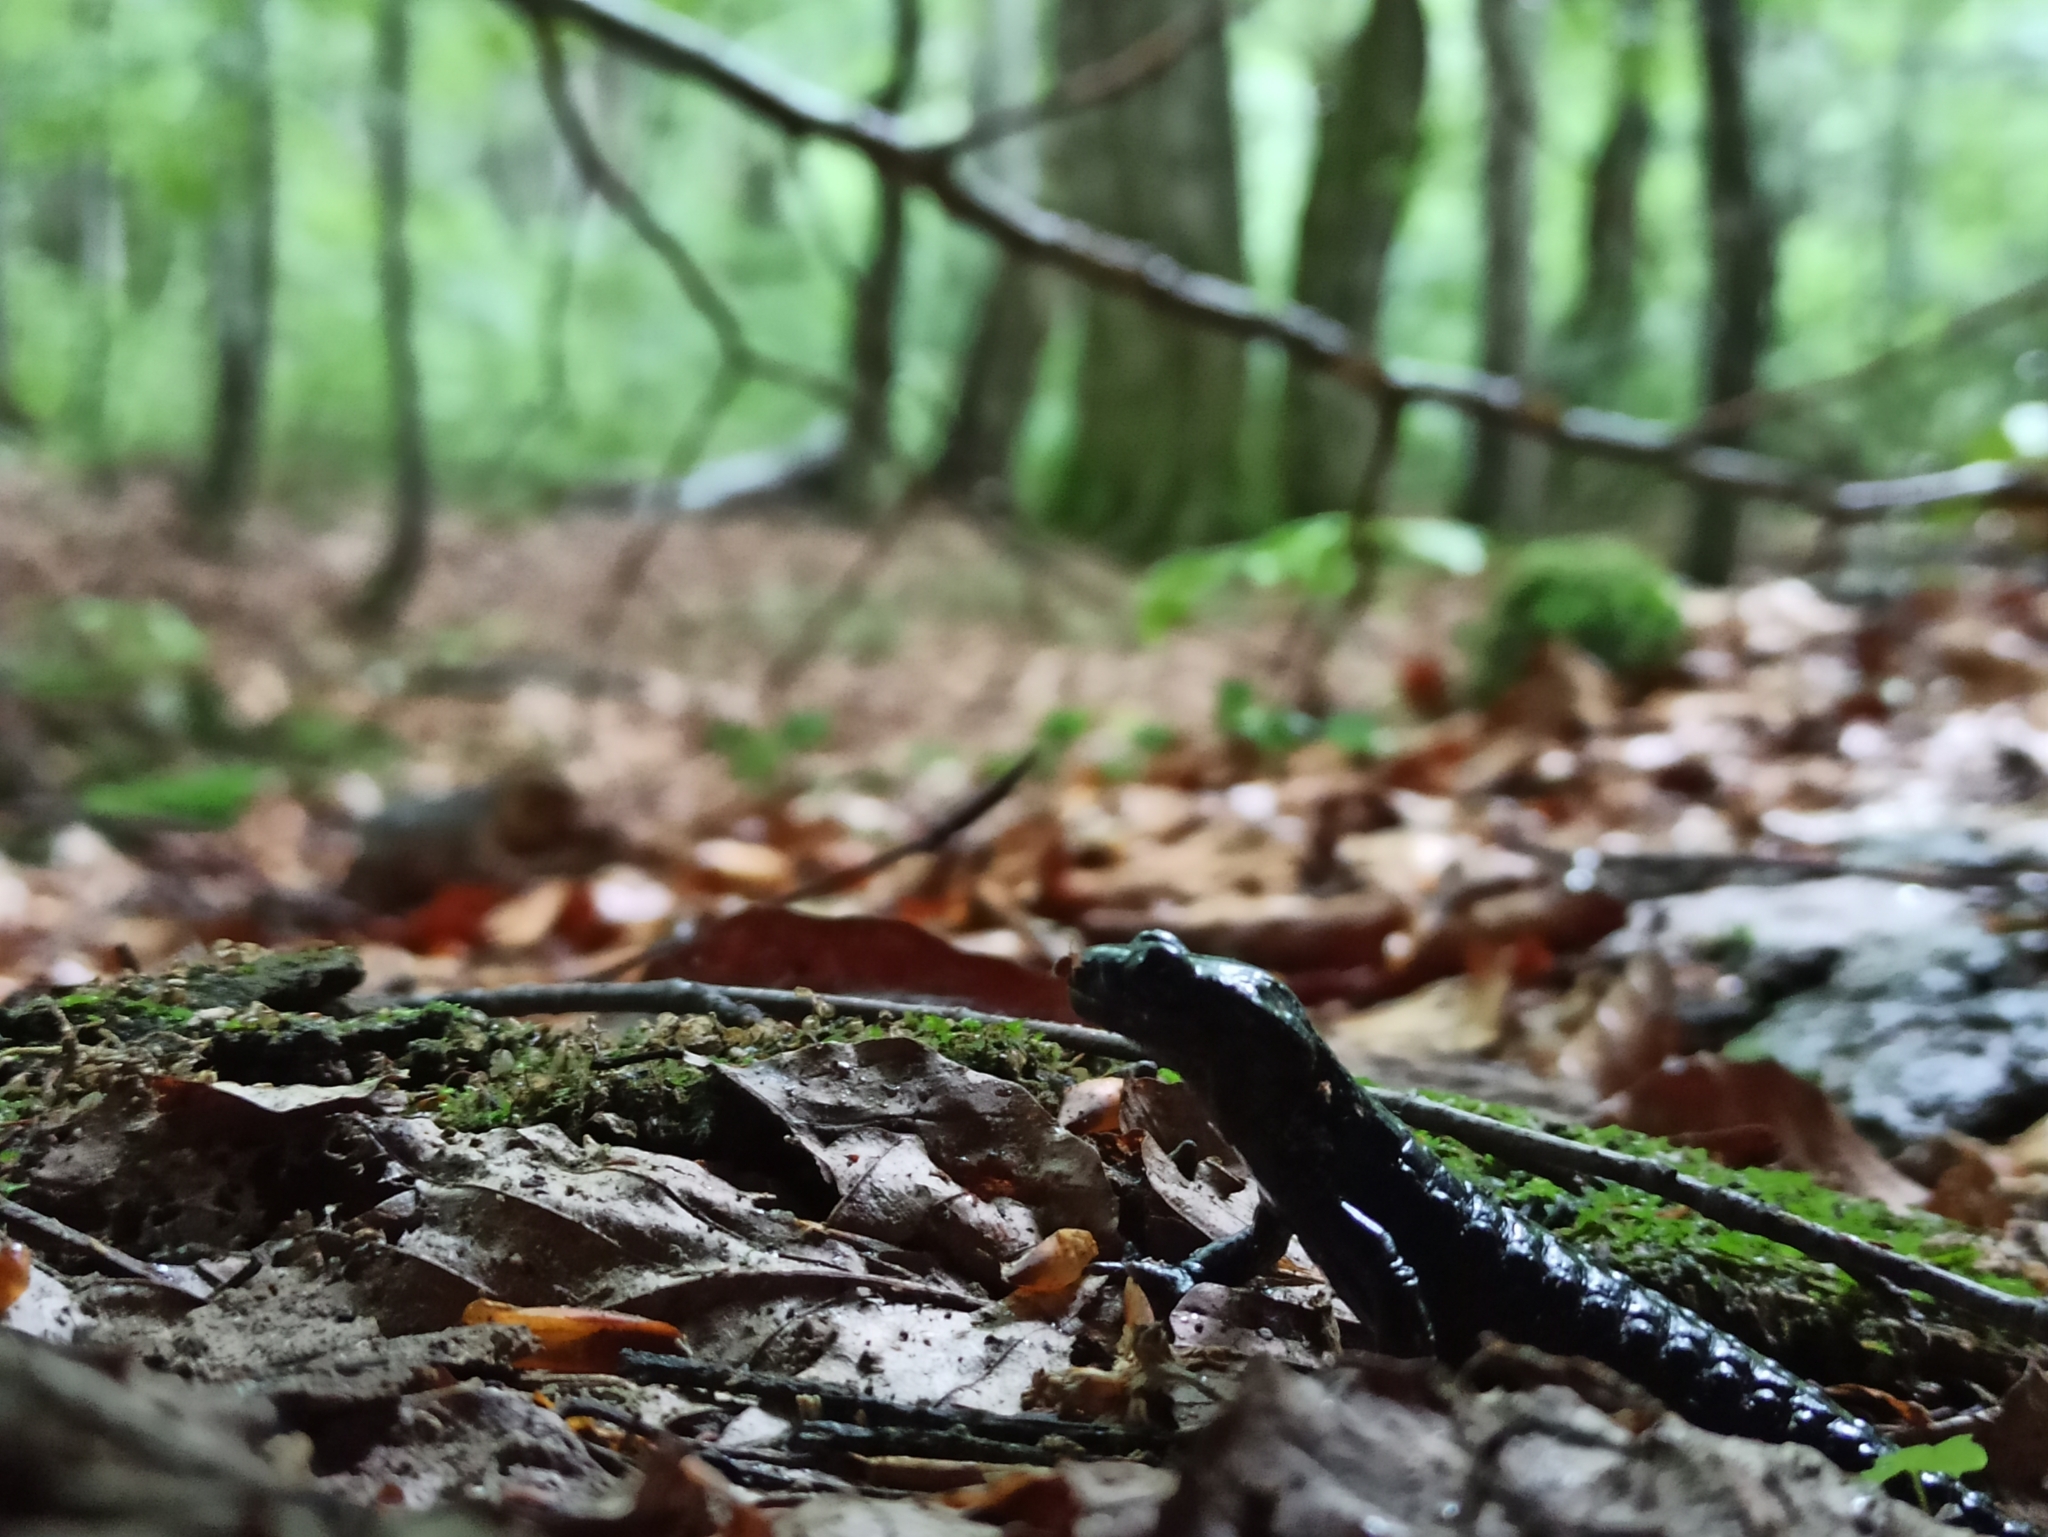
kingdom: Animalia
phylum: Chordata
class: Amphibia
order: Caudata
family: Salamandridae
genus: Salamandra
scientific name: Salamandra atra
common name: Alpine salamander
